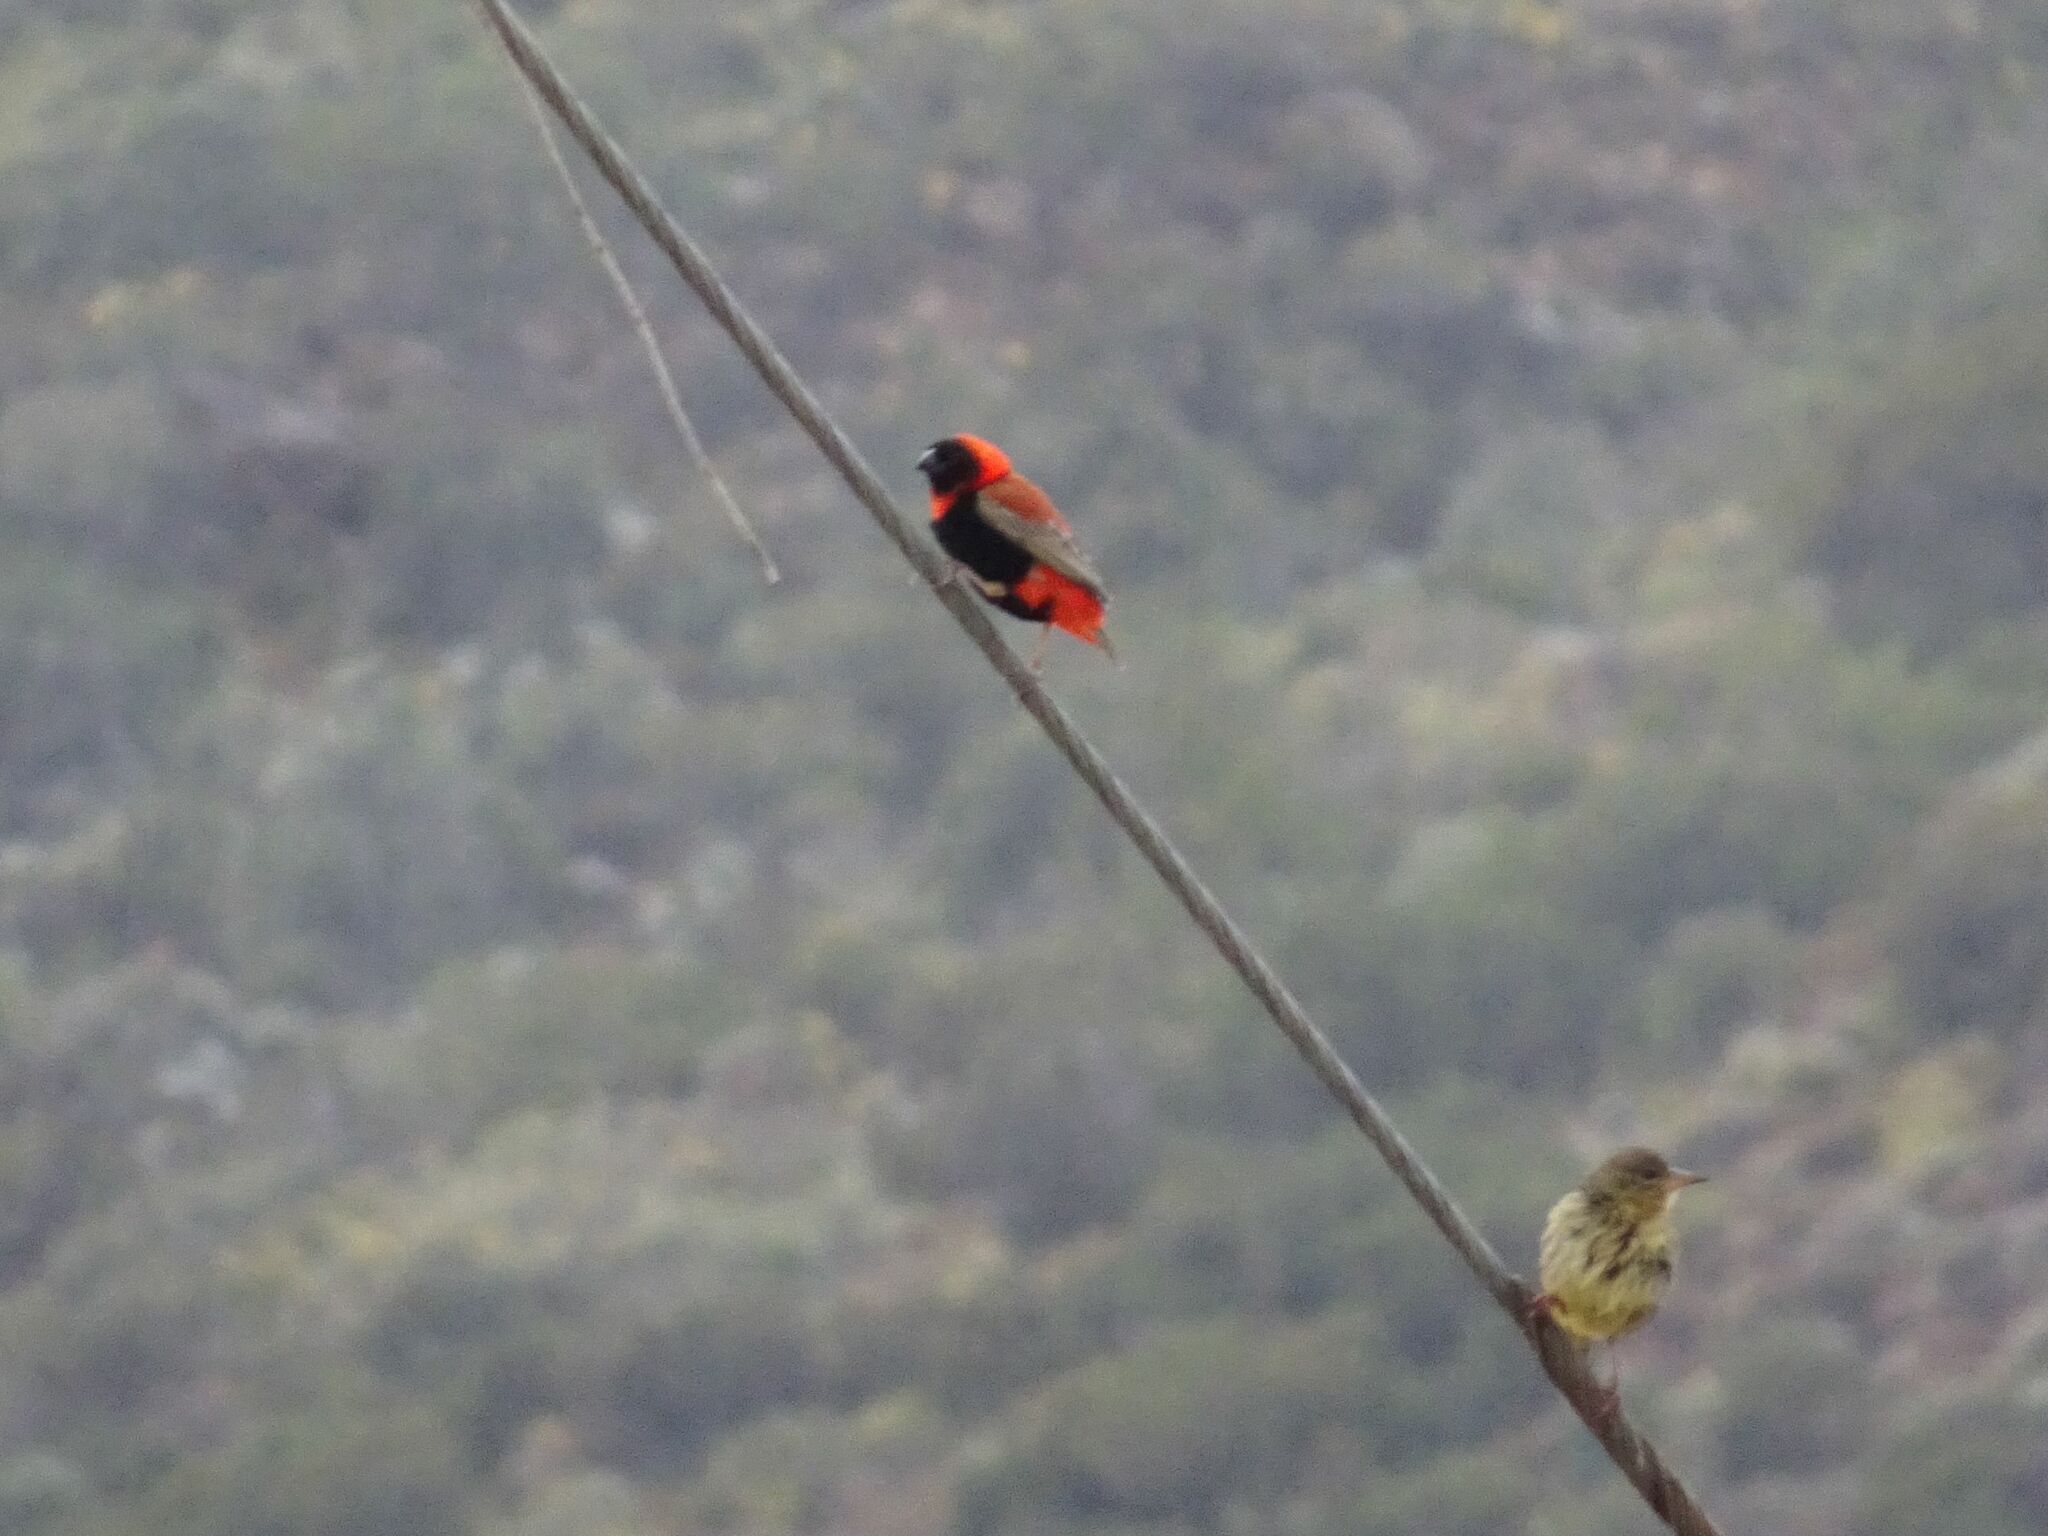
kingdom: Animalia
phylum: Chordata
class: Aves
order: Passeriformes
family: Ploceidae
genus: Euplectes
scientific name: Euplectes orix
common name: Southern red bishop
